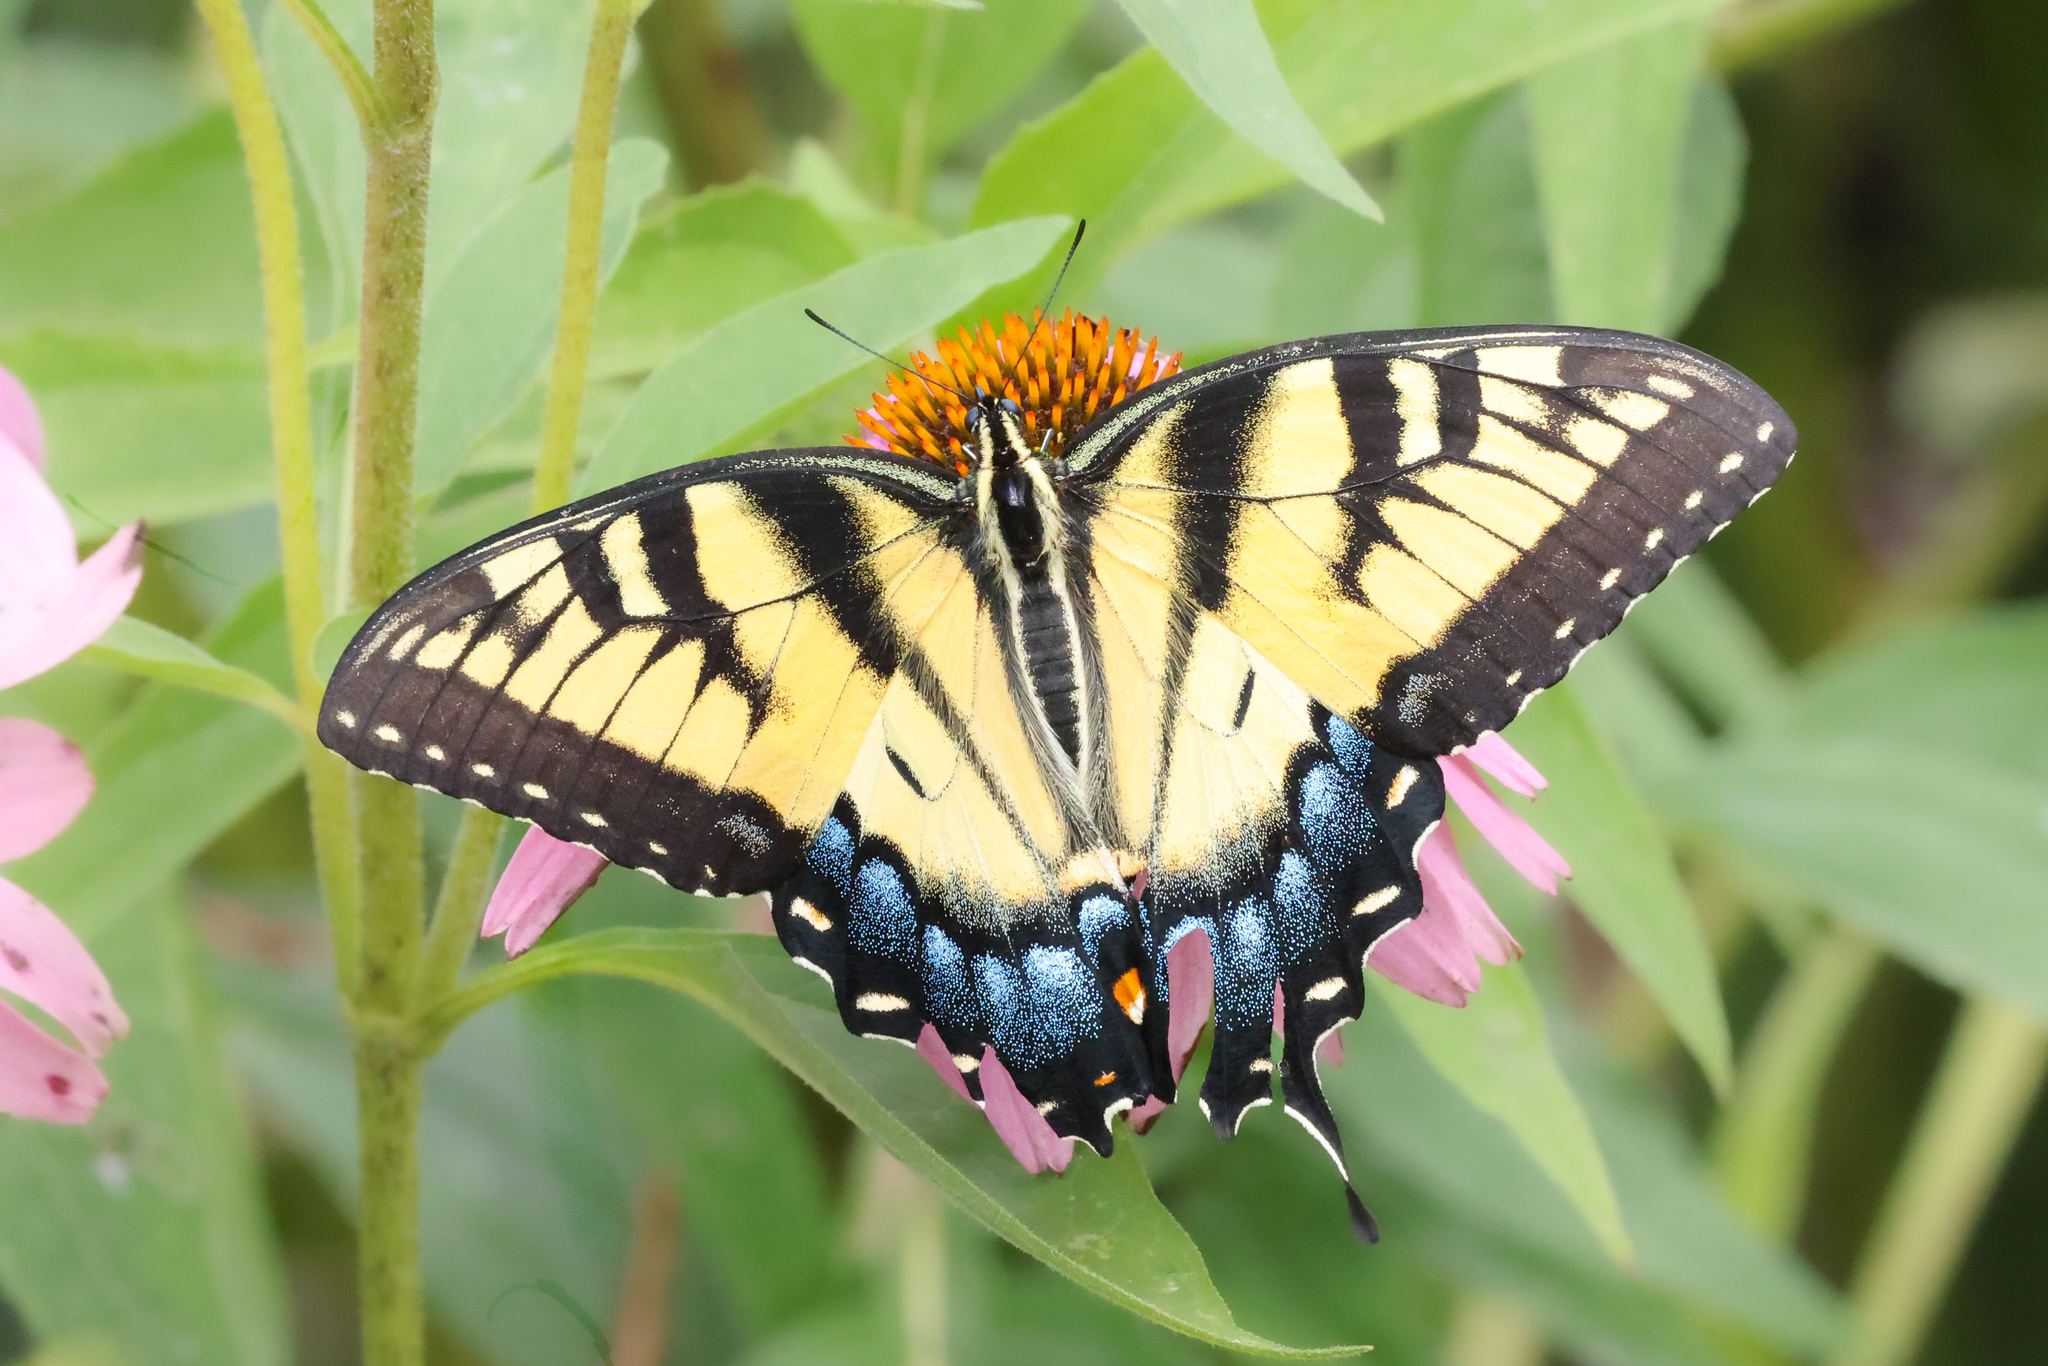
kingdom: Animalia
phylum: Arthropoda
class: Insecta
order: Lepidoptera
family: Papilionidae
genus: Papilio
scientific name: Papilio glaucus
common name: Tiger swallowtail
